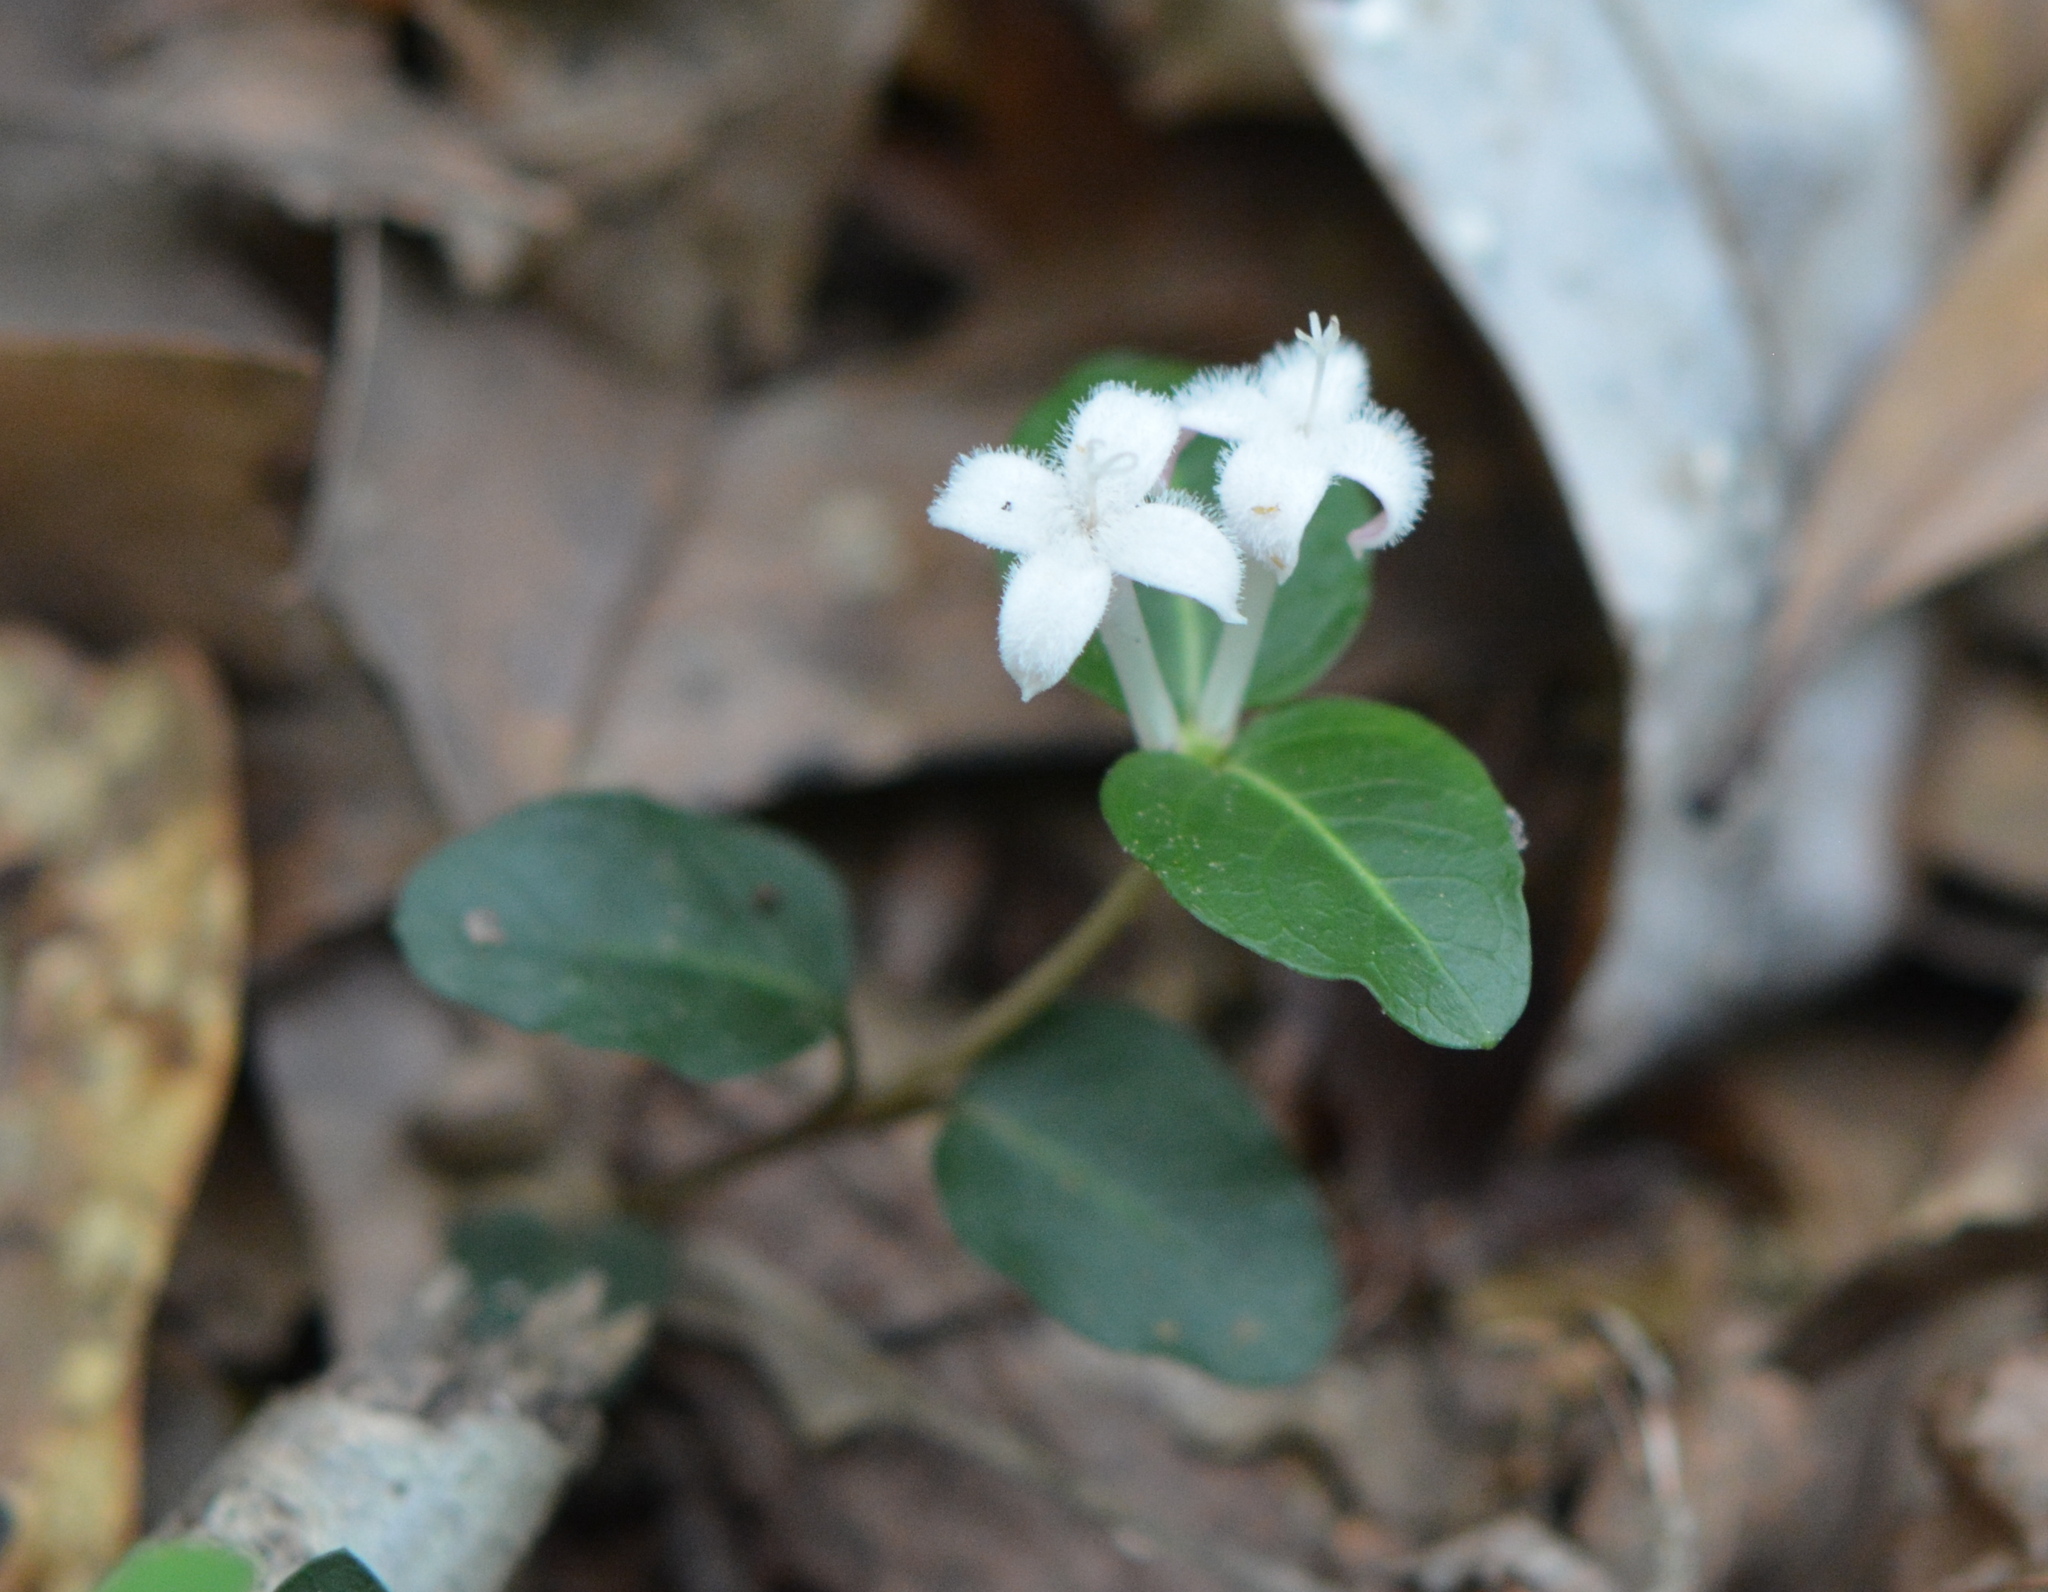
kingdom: Plantae
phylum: Tracheophyta
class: Magnoliopsida
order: Gentianales
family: Rubiaceae
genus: Mitchella
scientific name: Mitchella repens
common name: Partridge-berry
